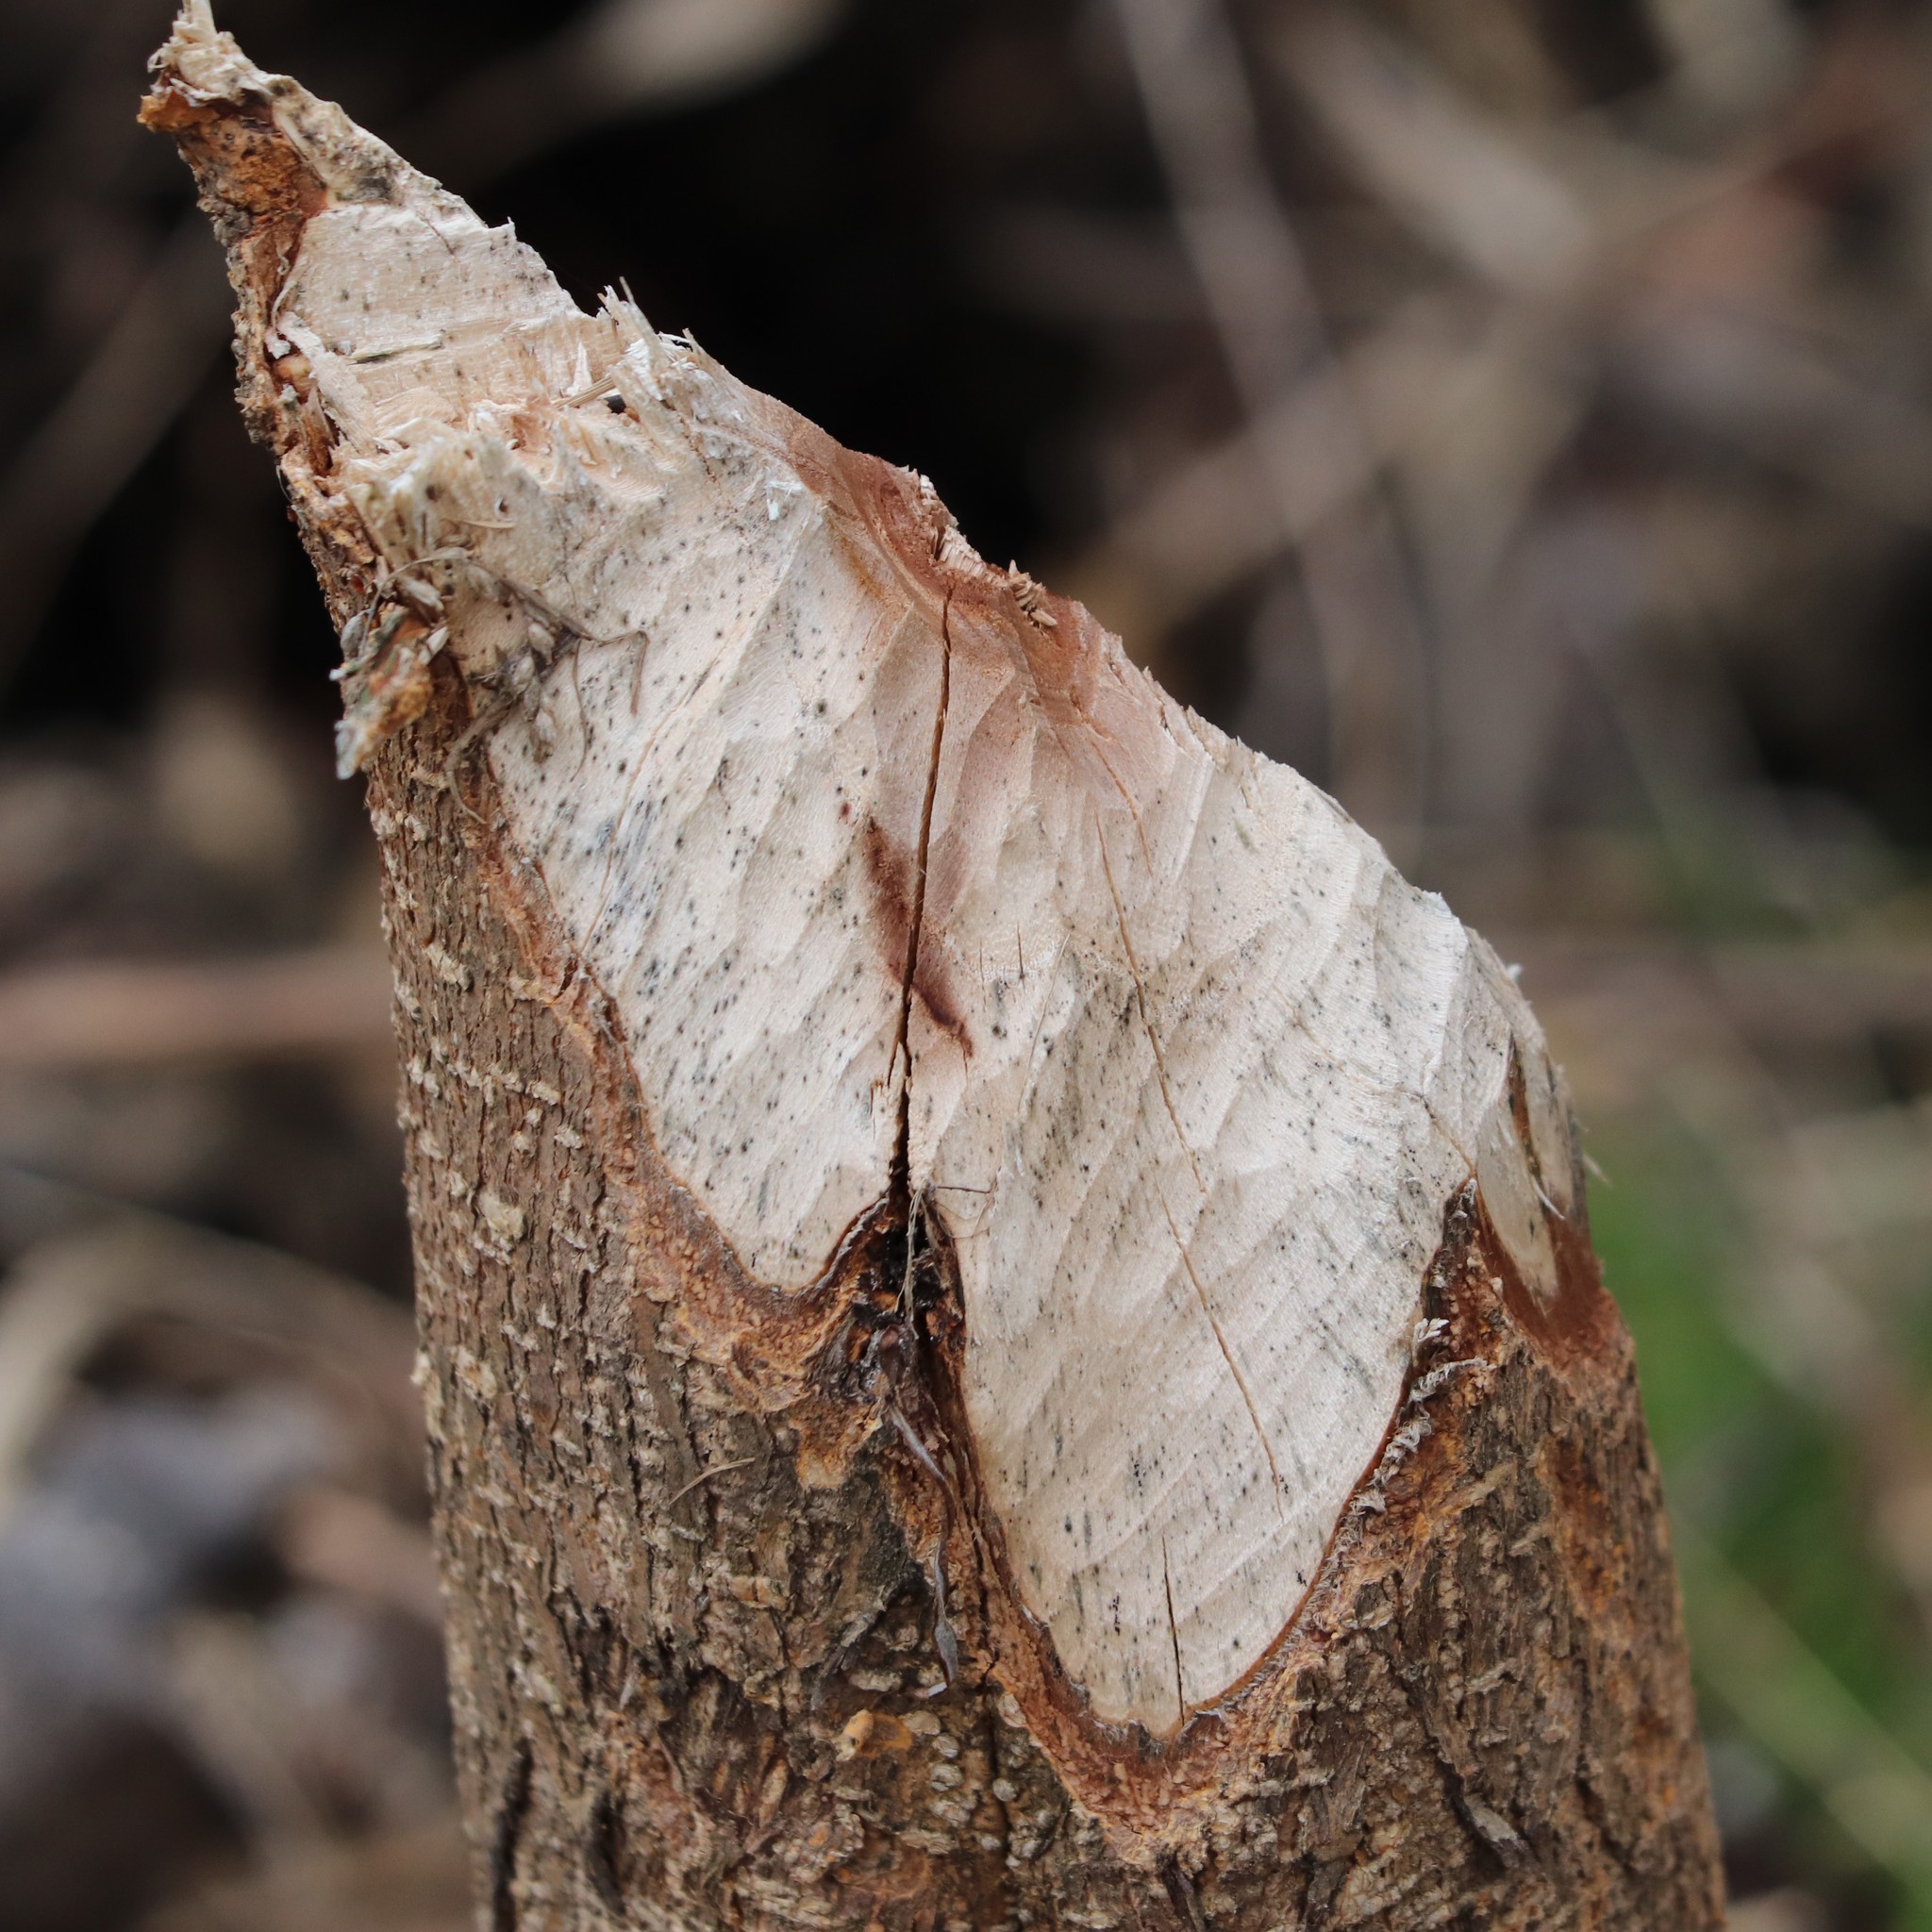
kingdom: Animalia
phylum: Chordata
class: Mammalia
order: Rodentia
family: Castoridae
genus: Castor
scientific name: Castor canadensis
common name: American beaver
